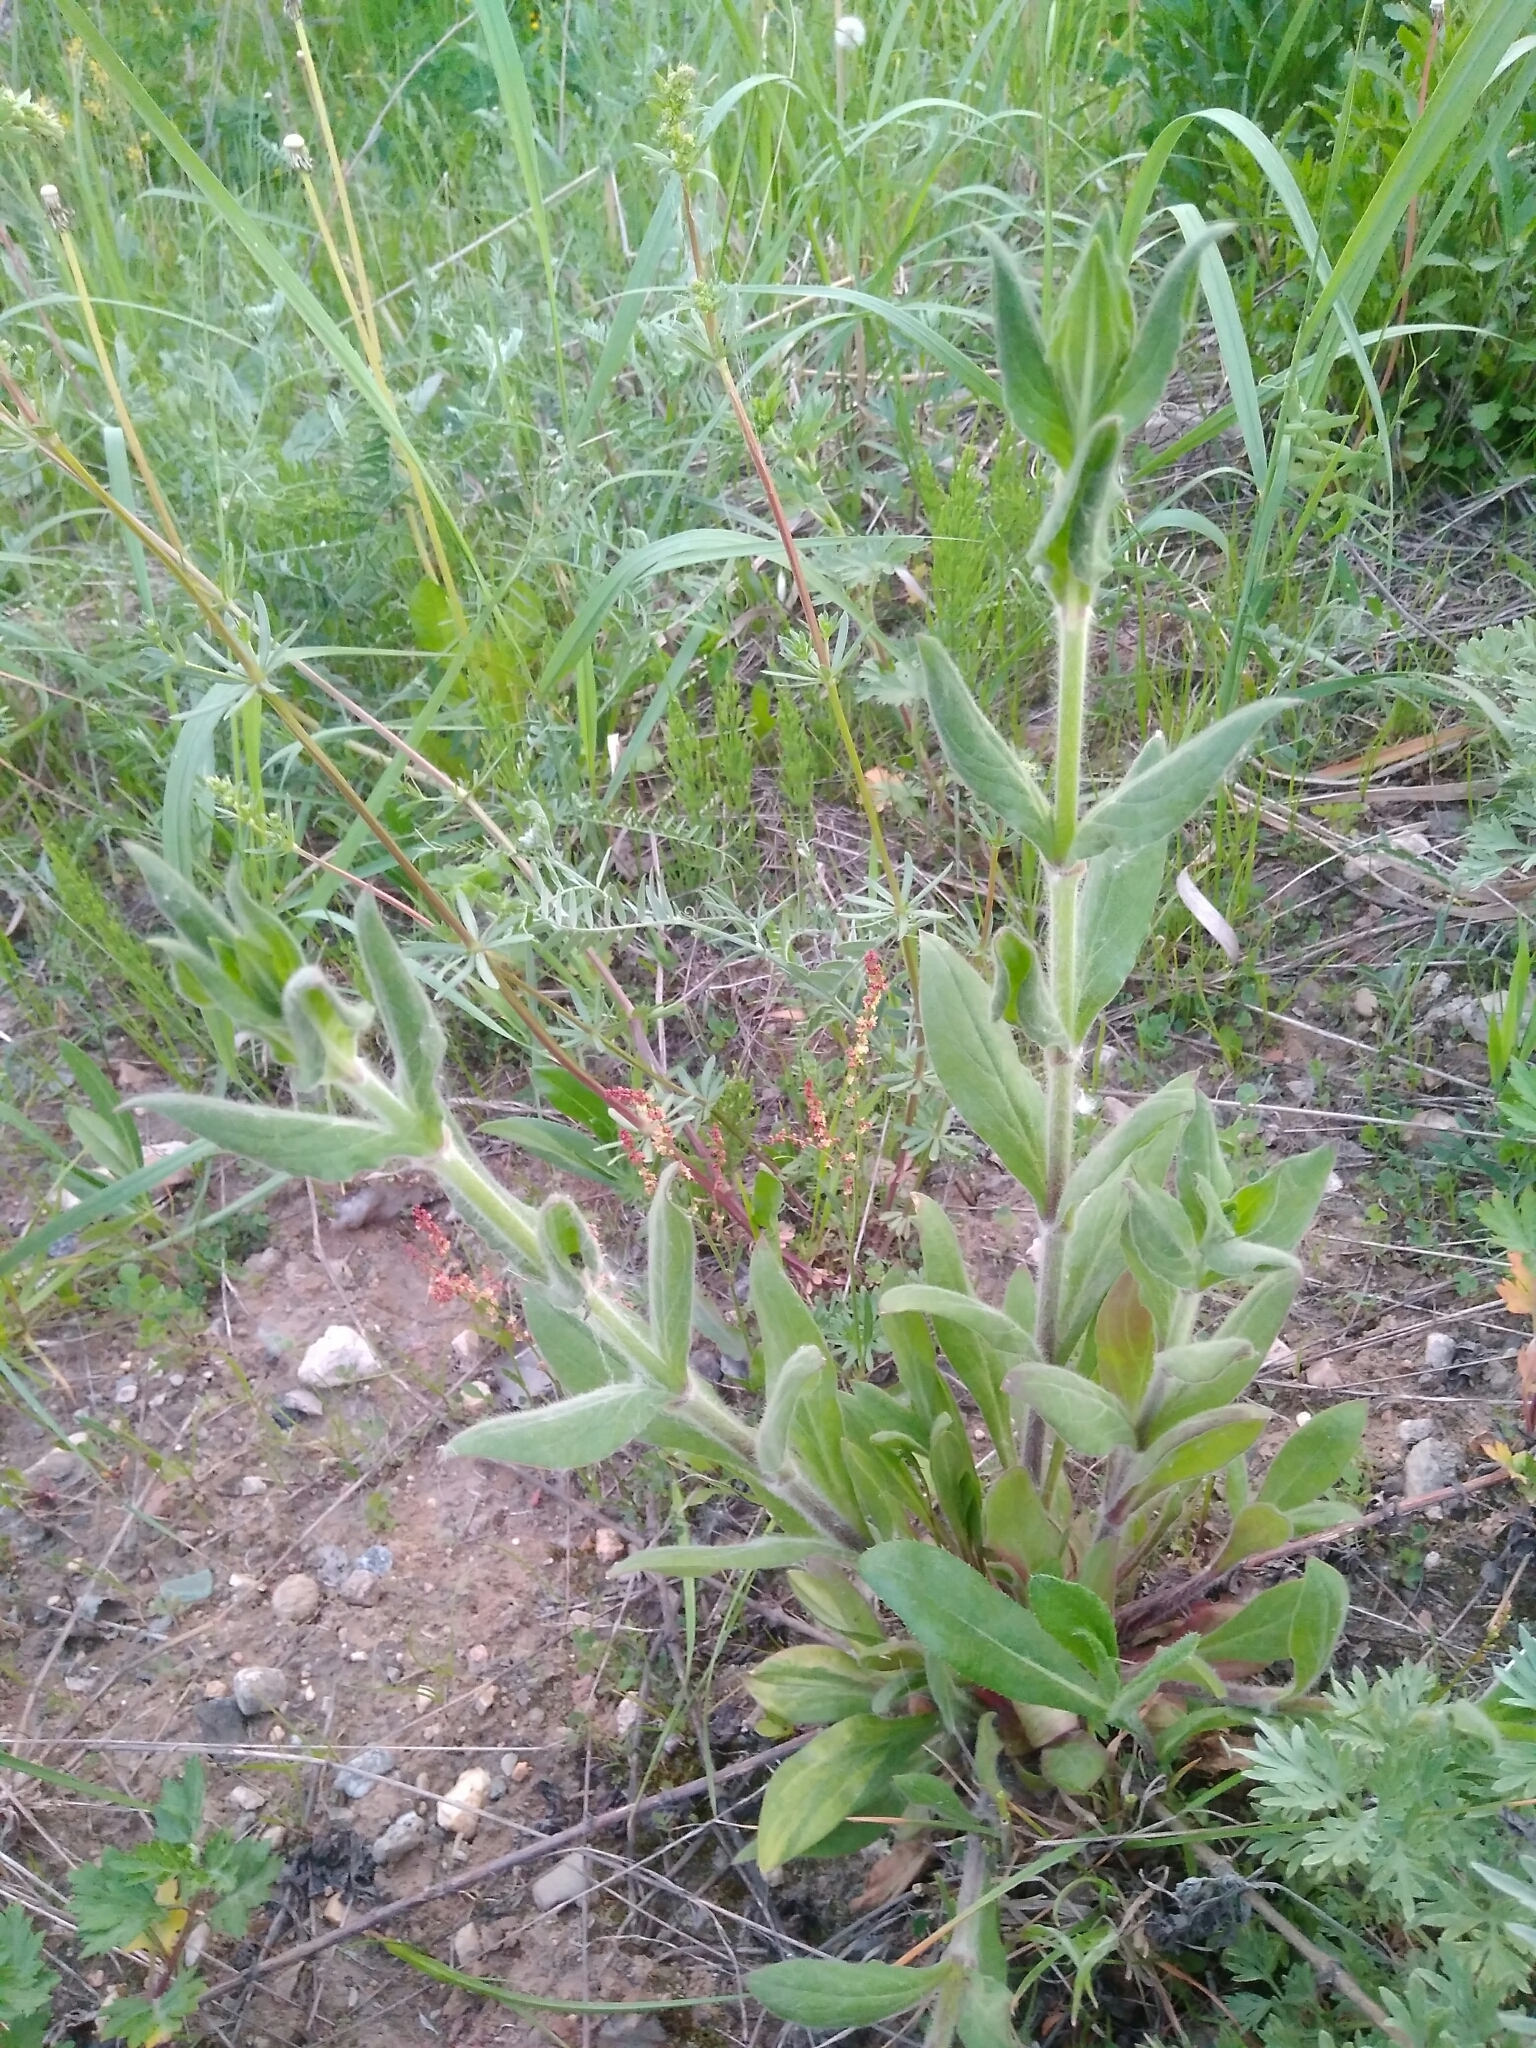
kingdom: Plantae
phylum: Tracheophyta
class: Magnoliopsida
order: Caryophyllales
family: Caryophyllaceae
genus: Silene
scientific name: Silene latifolia
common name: White campion
